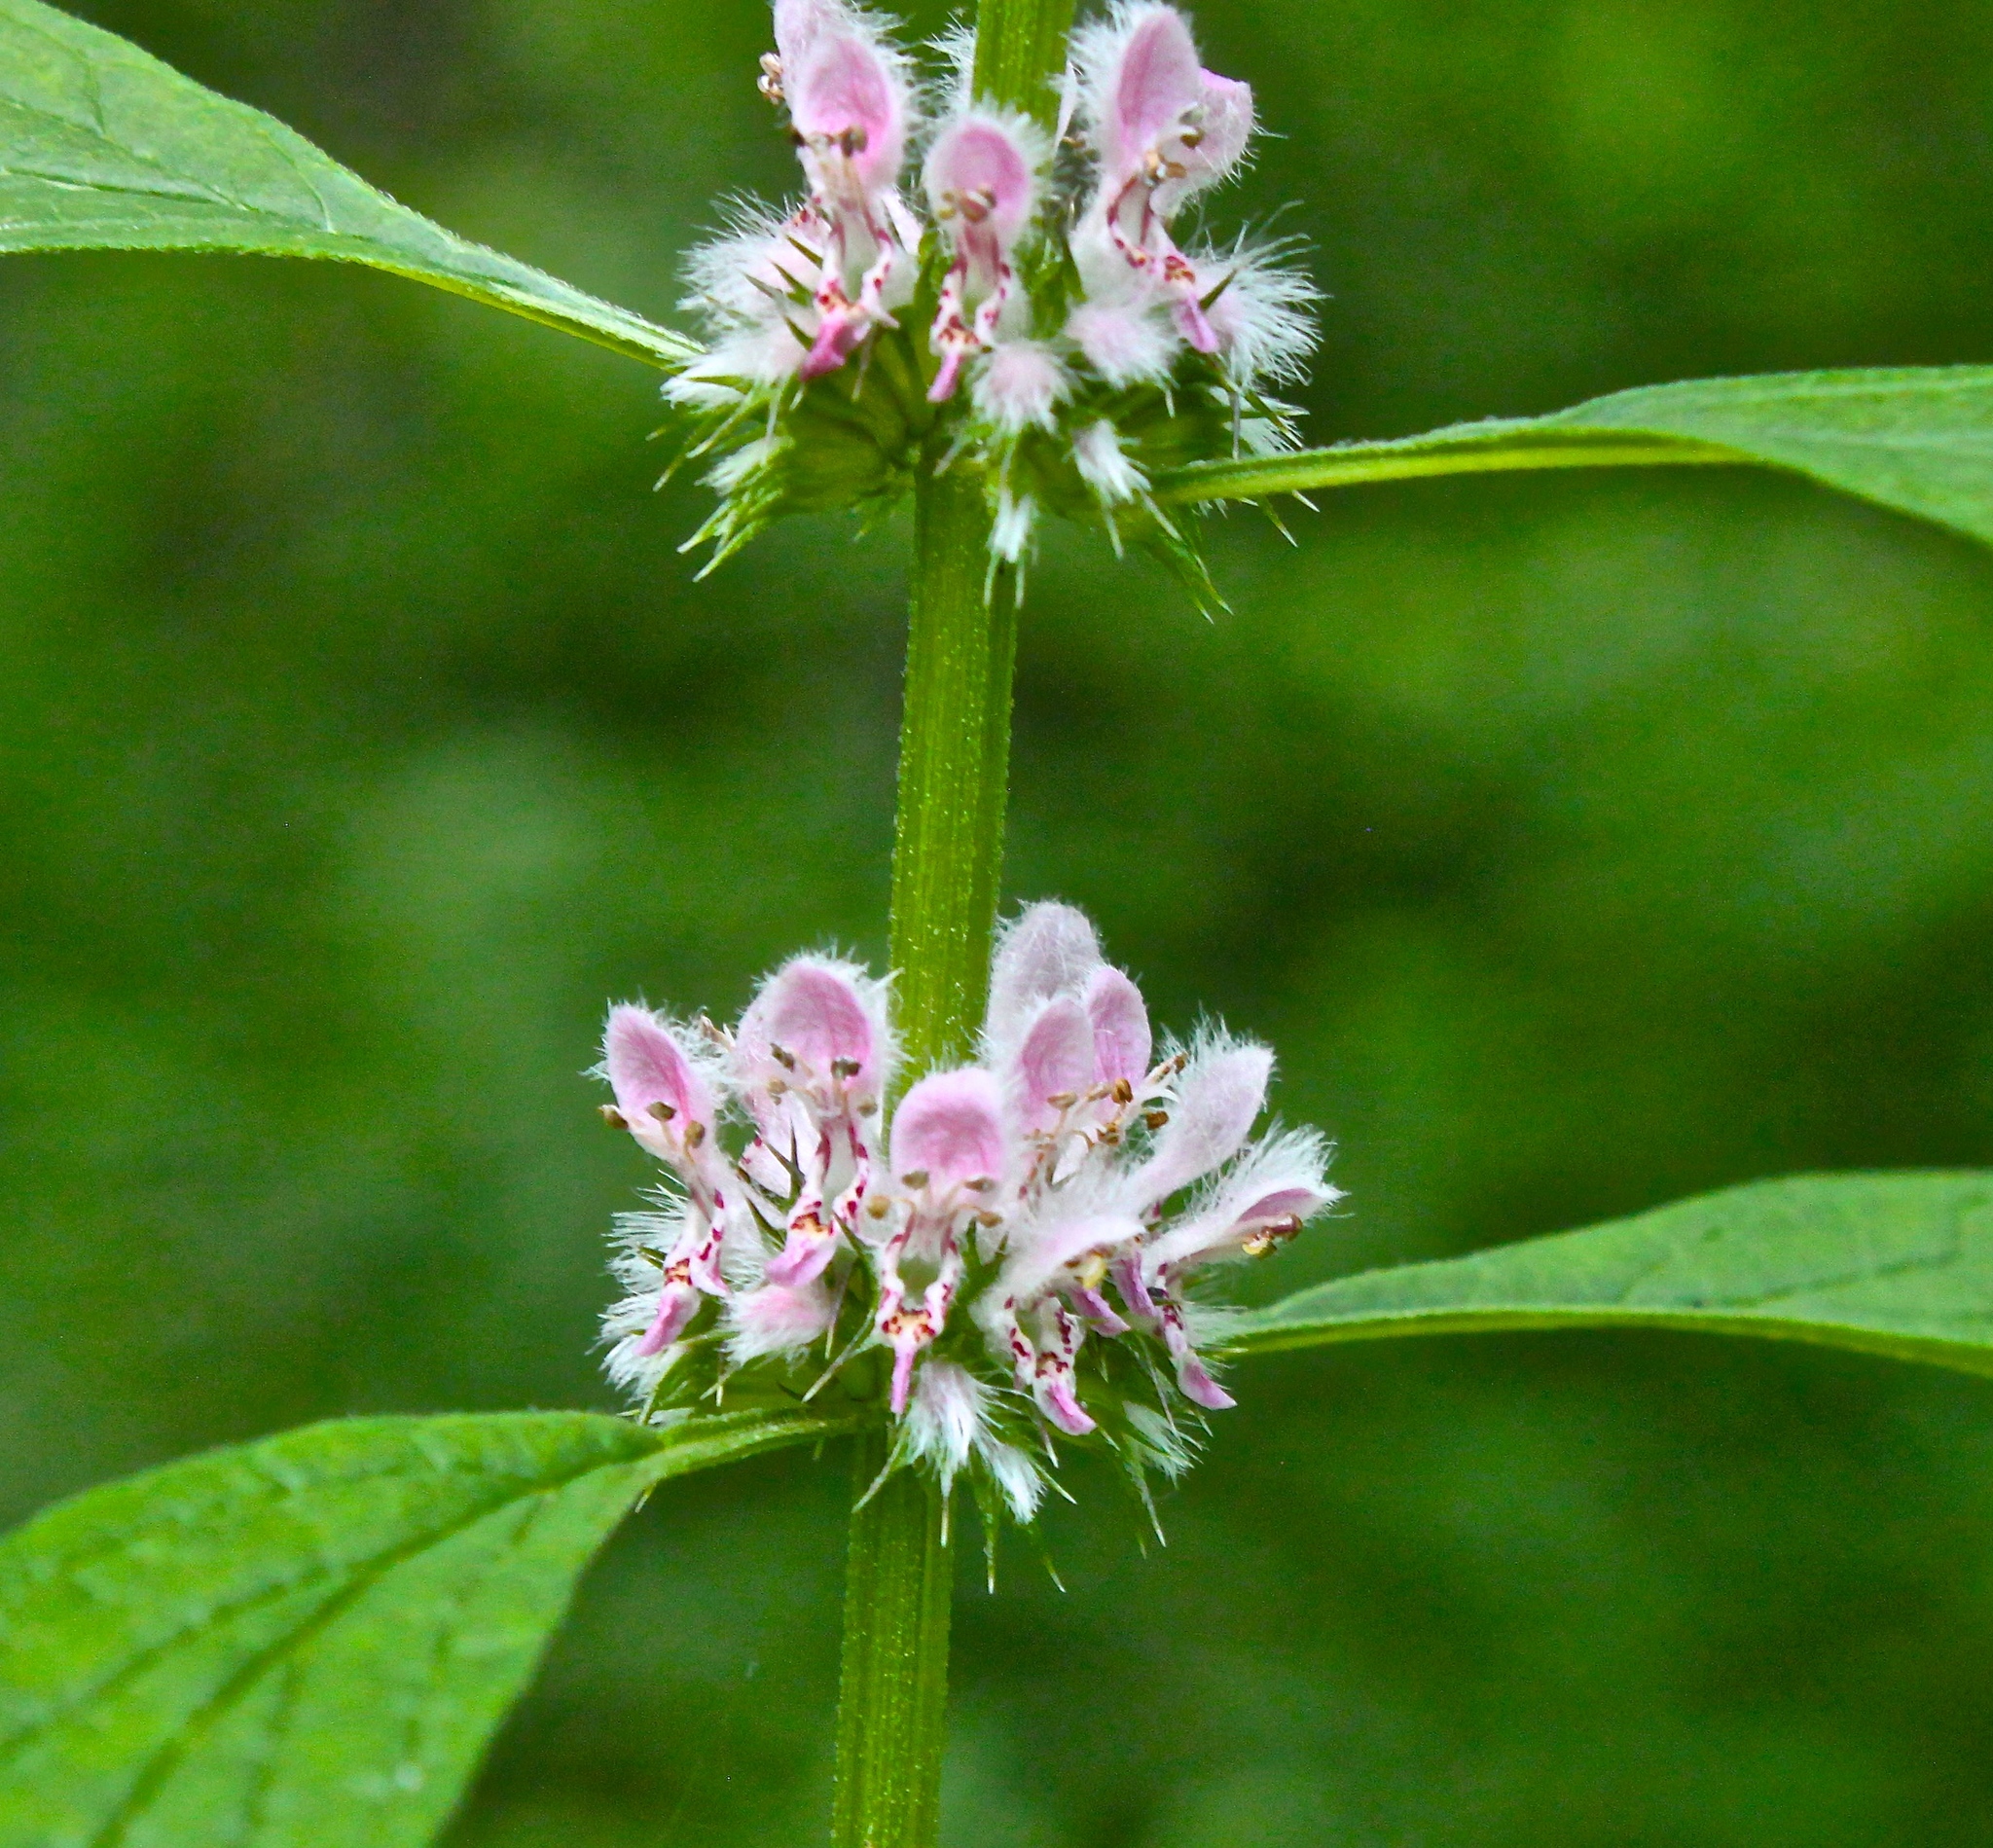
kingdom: Plantae
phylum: Tracheophyta
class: Magnoliopsida
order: Lamiales
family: Lamiaceae
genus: Leonurus
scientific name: Leonurus cardiaca
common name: Motherwort
